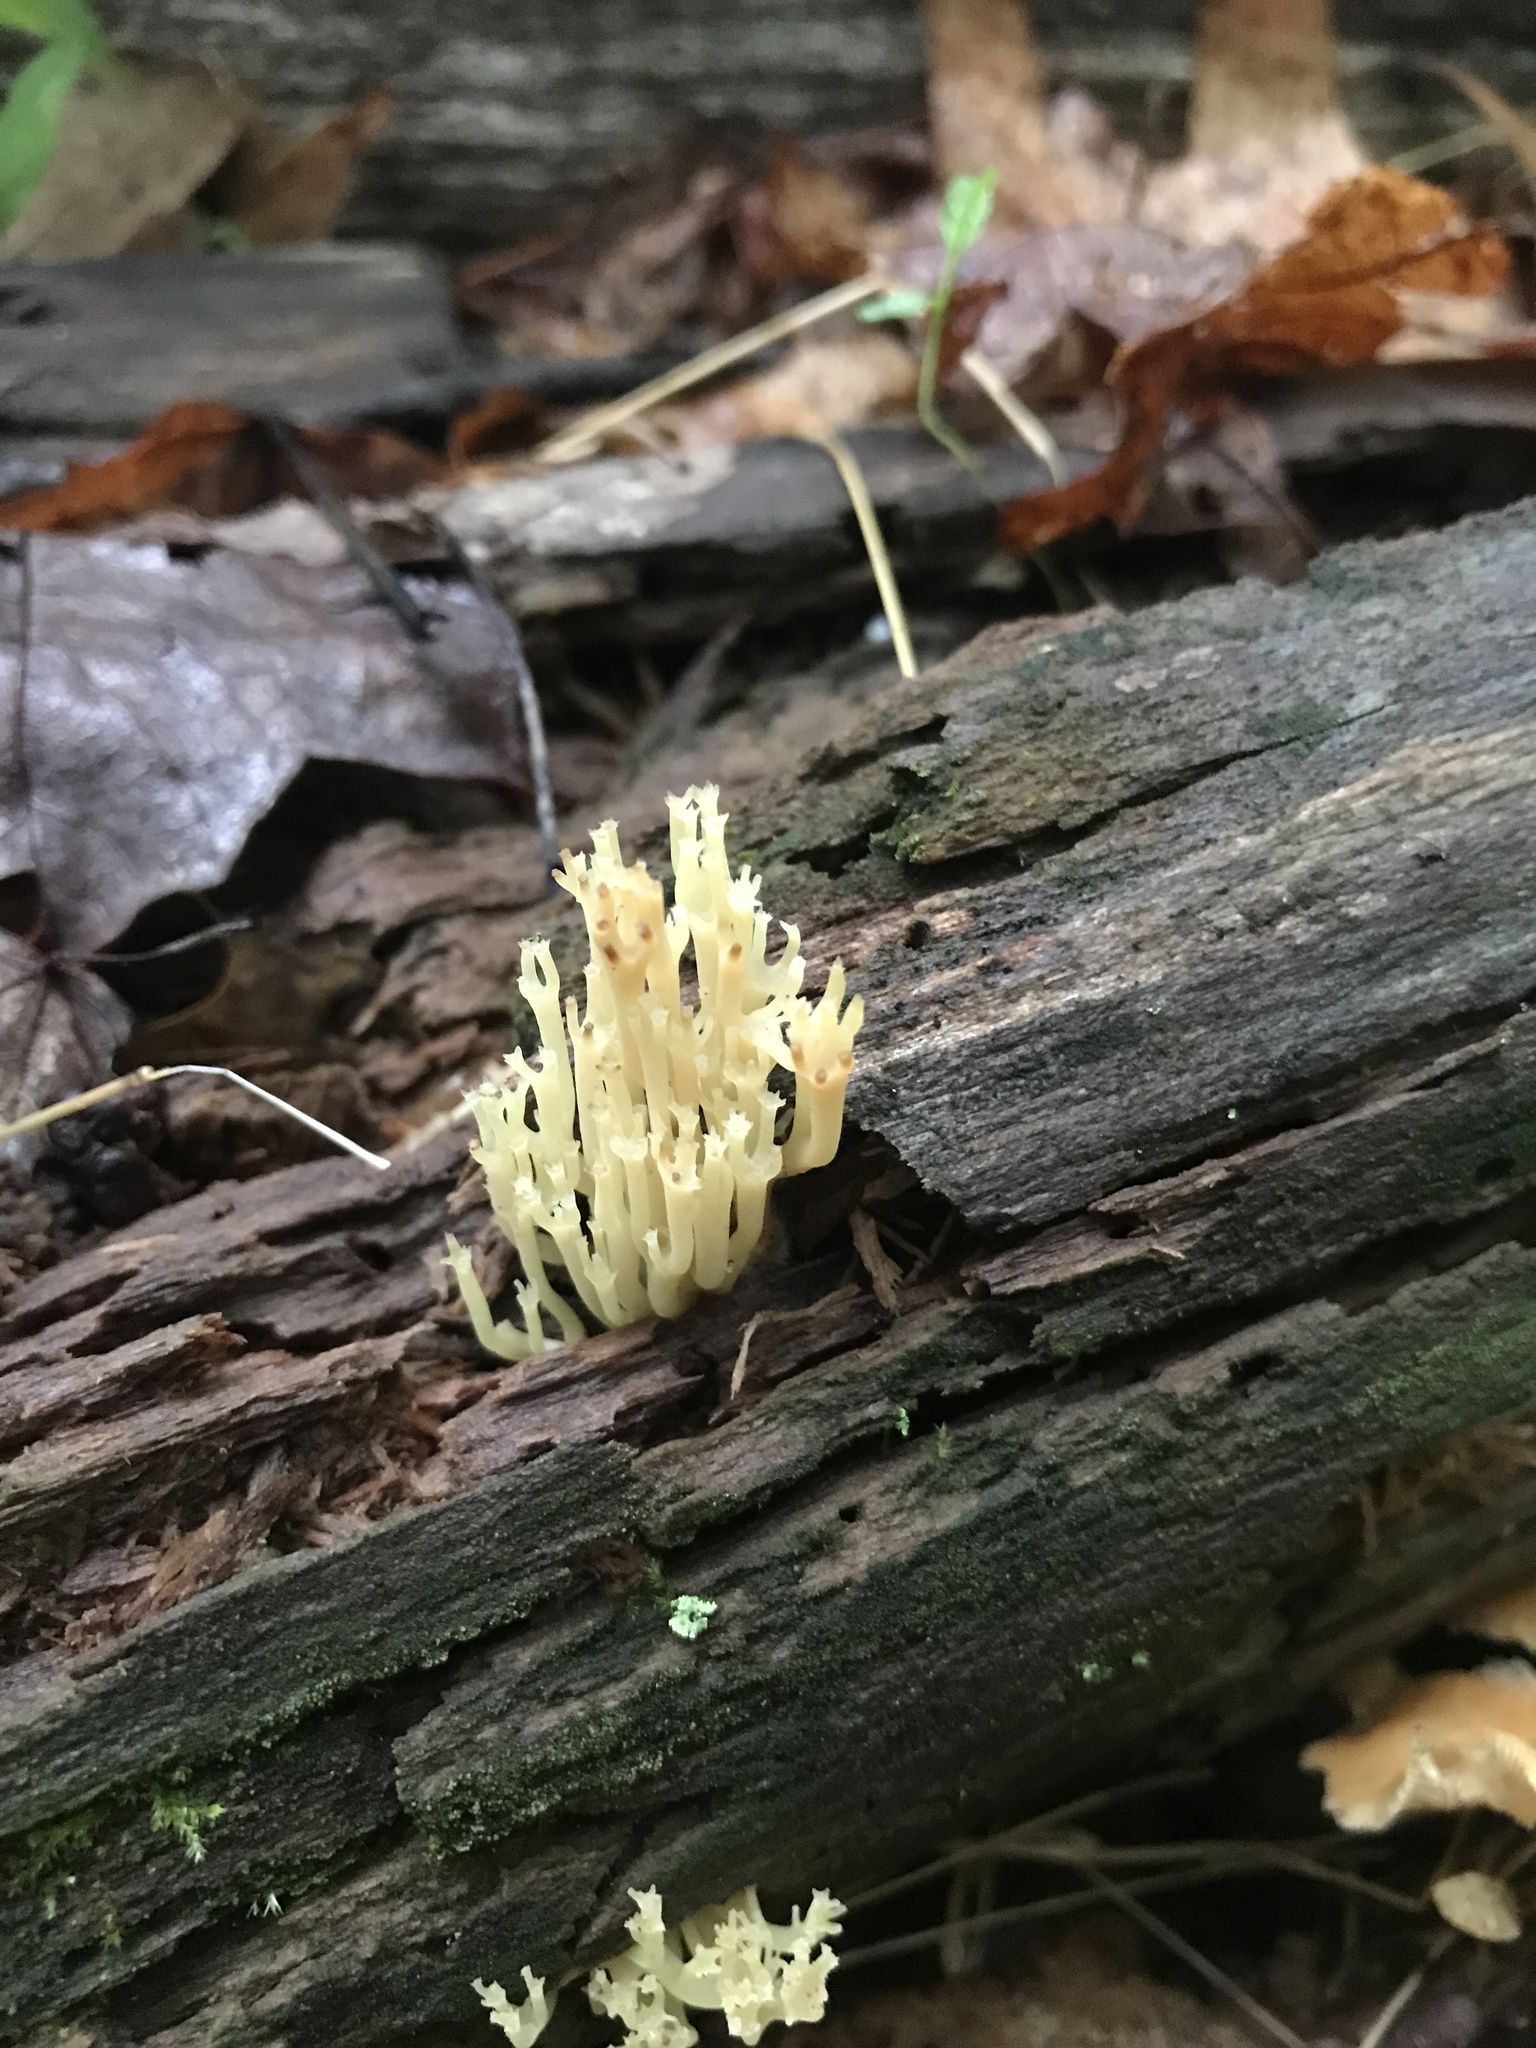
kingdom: Fungi
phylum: Basidiomycota
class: Agaricomycetes
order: Russulales
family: Auriscalpiaceae
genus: Artomyces
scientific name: Artomyces pyxidatus
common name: Crown-tipped coral fungus
